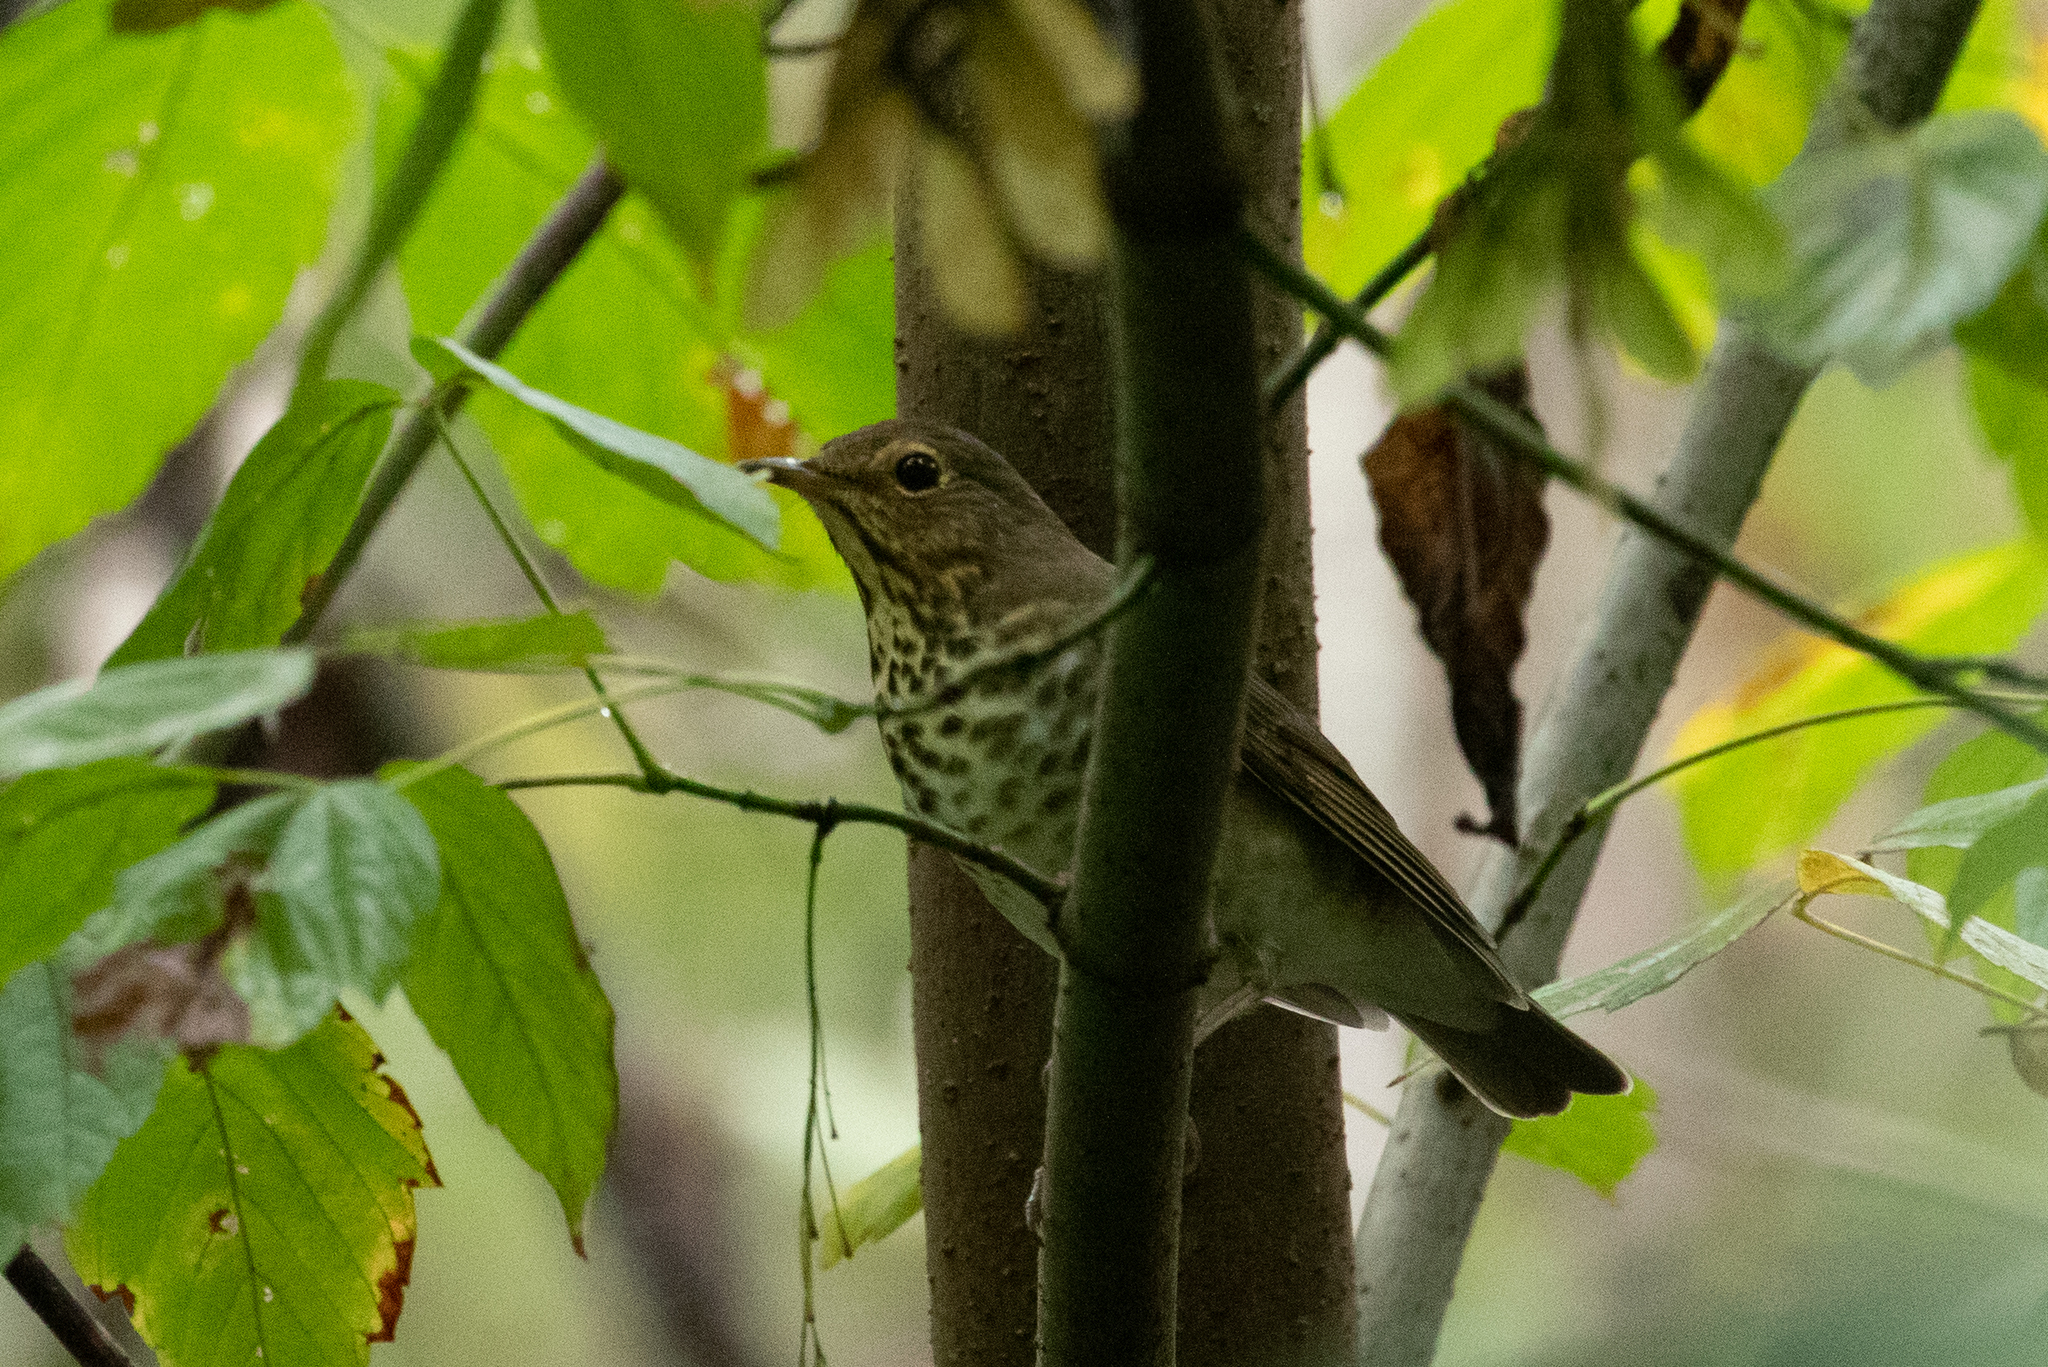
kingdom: Animalia
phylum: Chordata
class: Aves
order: Passeriformes
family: Turdidae
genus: Catharus
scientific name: Catharus ustulatus
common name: Swainson's thrush
